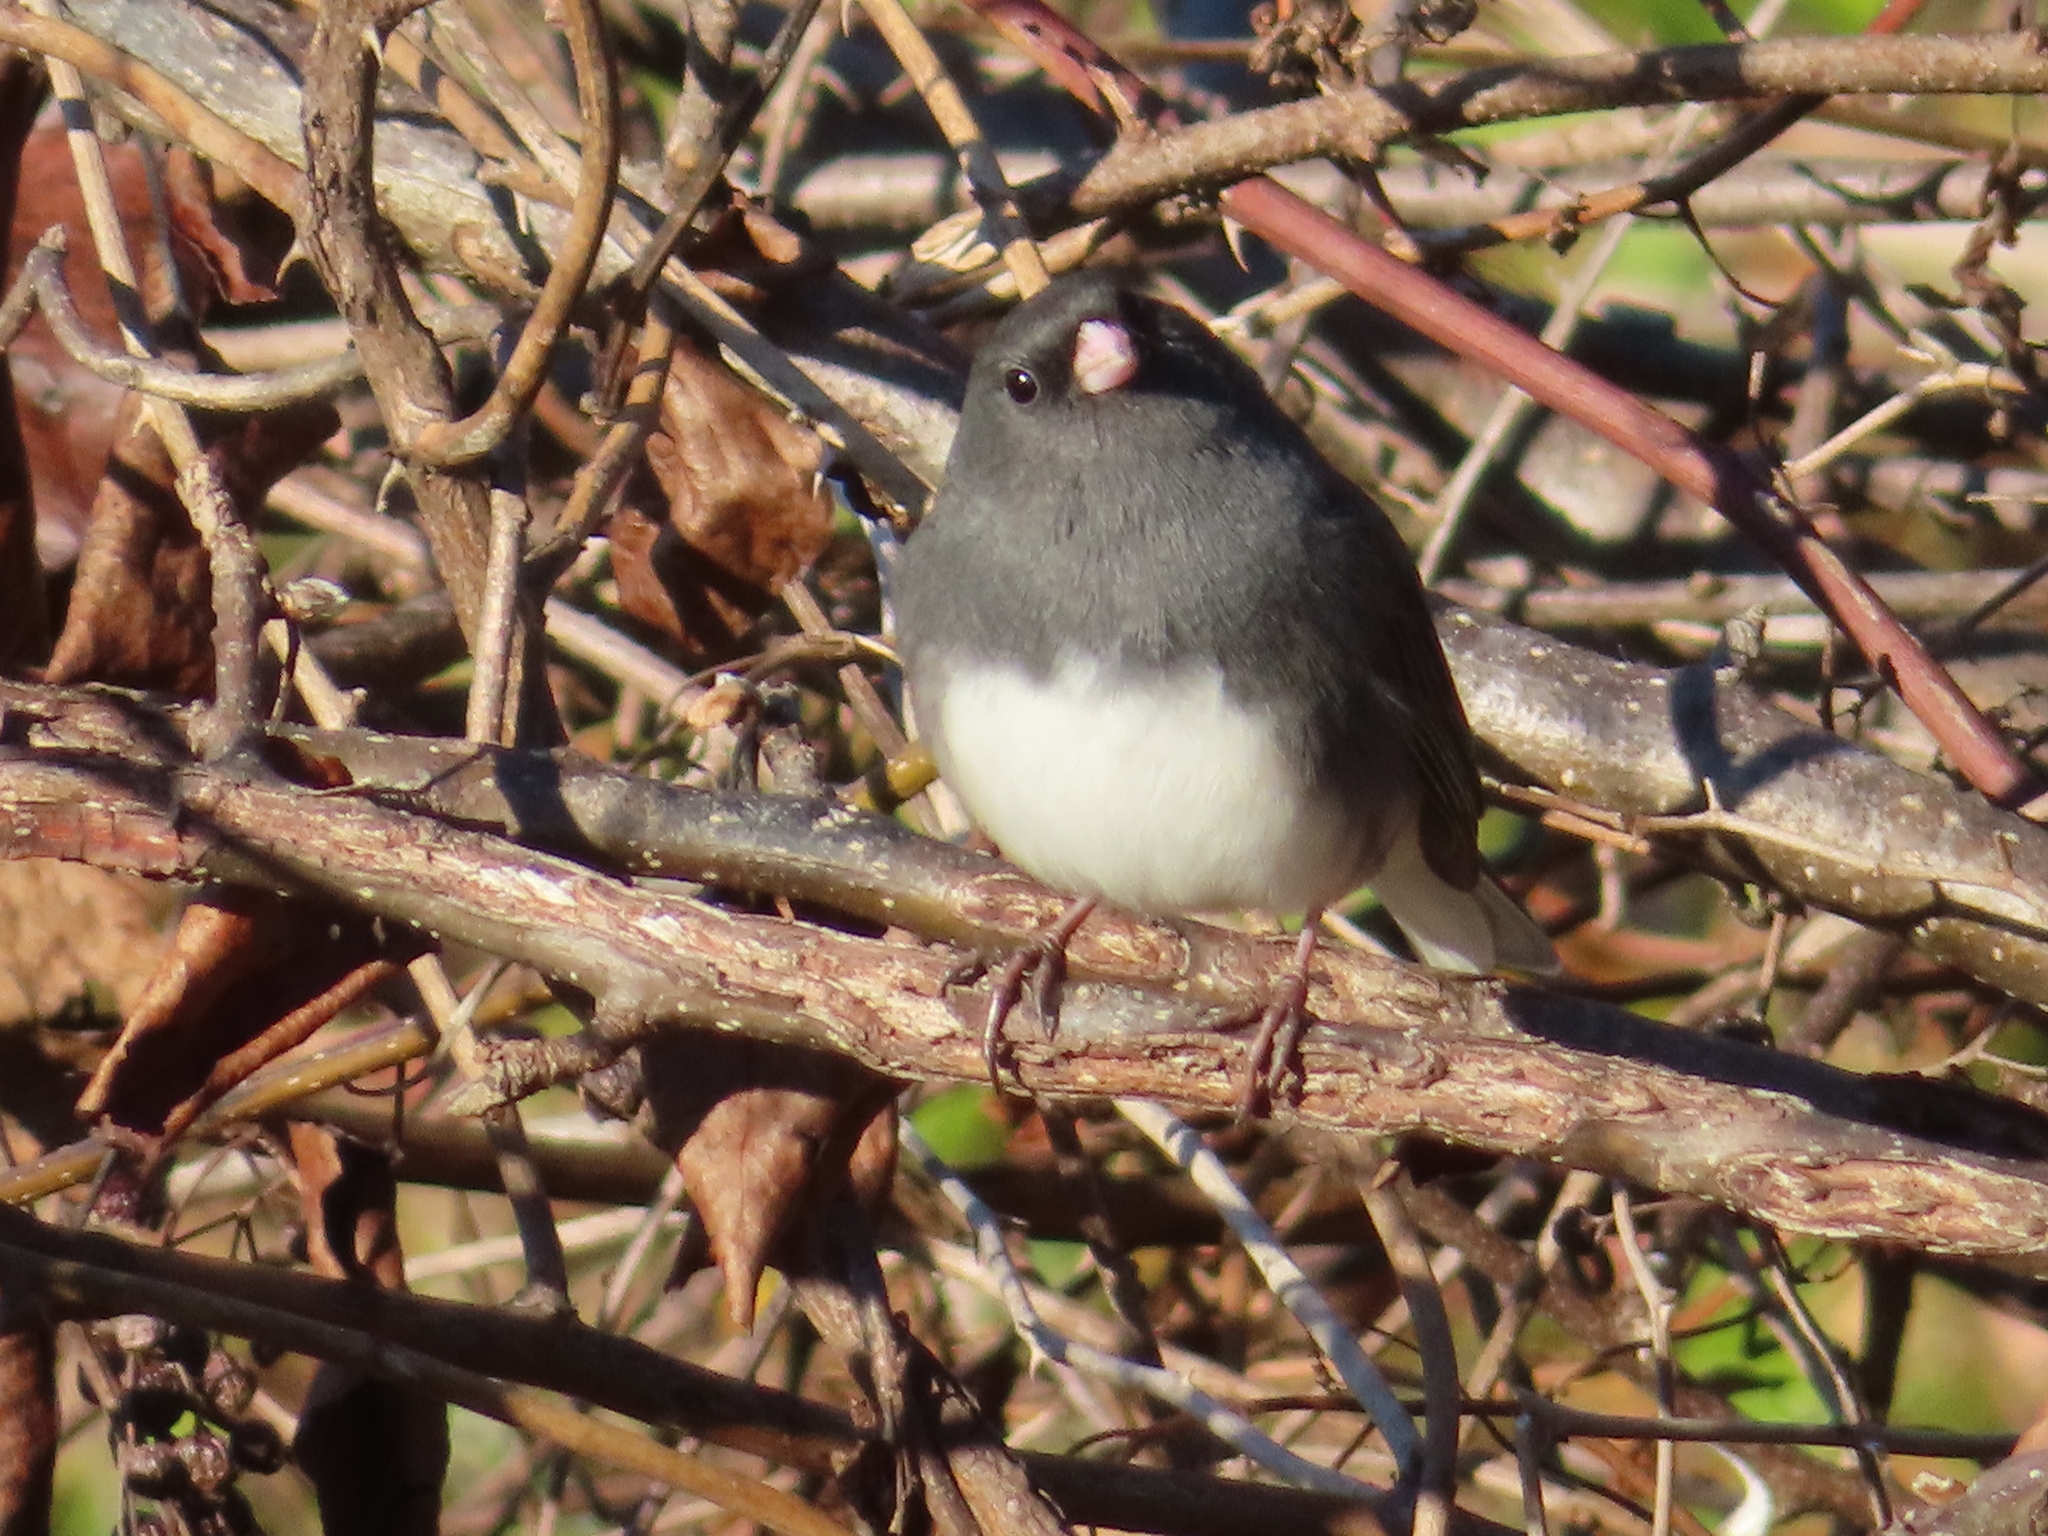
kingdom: Animalia
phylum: Chordata
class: Aves
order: Passeriformes
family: Passerellidae
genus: Junco
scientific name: Junco hyemalis
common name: Dark-eyed junco
